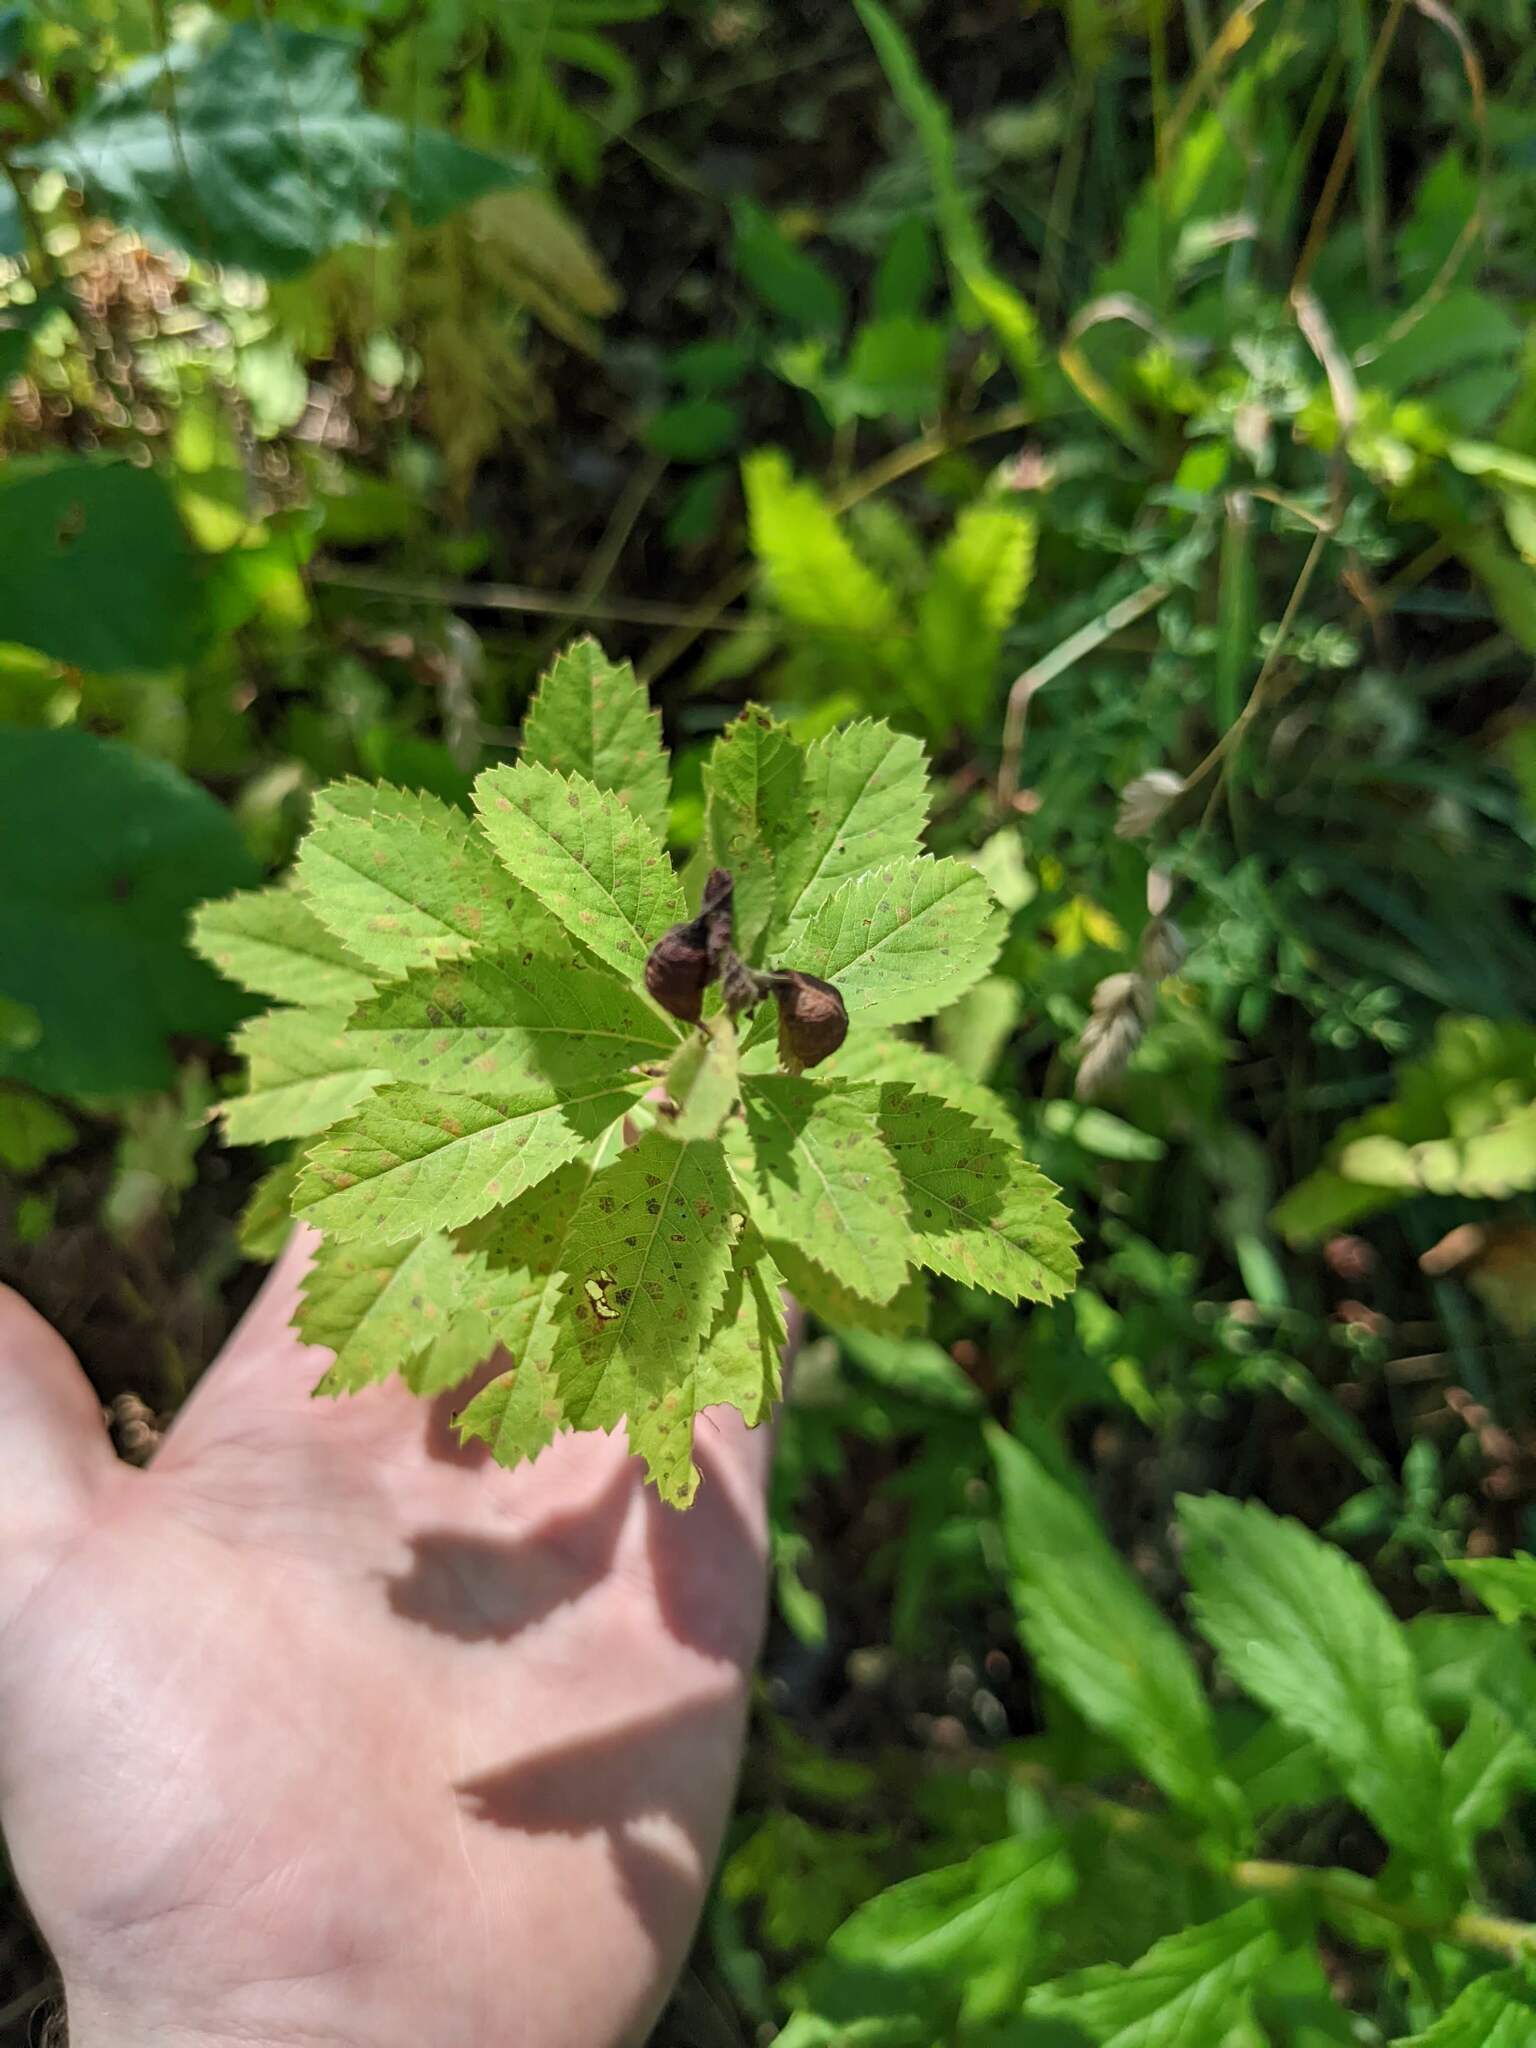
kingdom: Plantae
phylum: Tracheophyta
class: Magnoliopsida
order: Rosales
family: Rosaceae
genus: Spiraea
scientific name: Spiraea alba
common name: Pale bridewort
